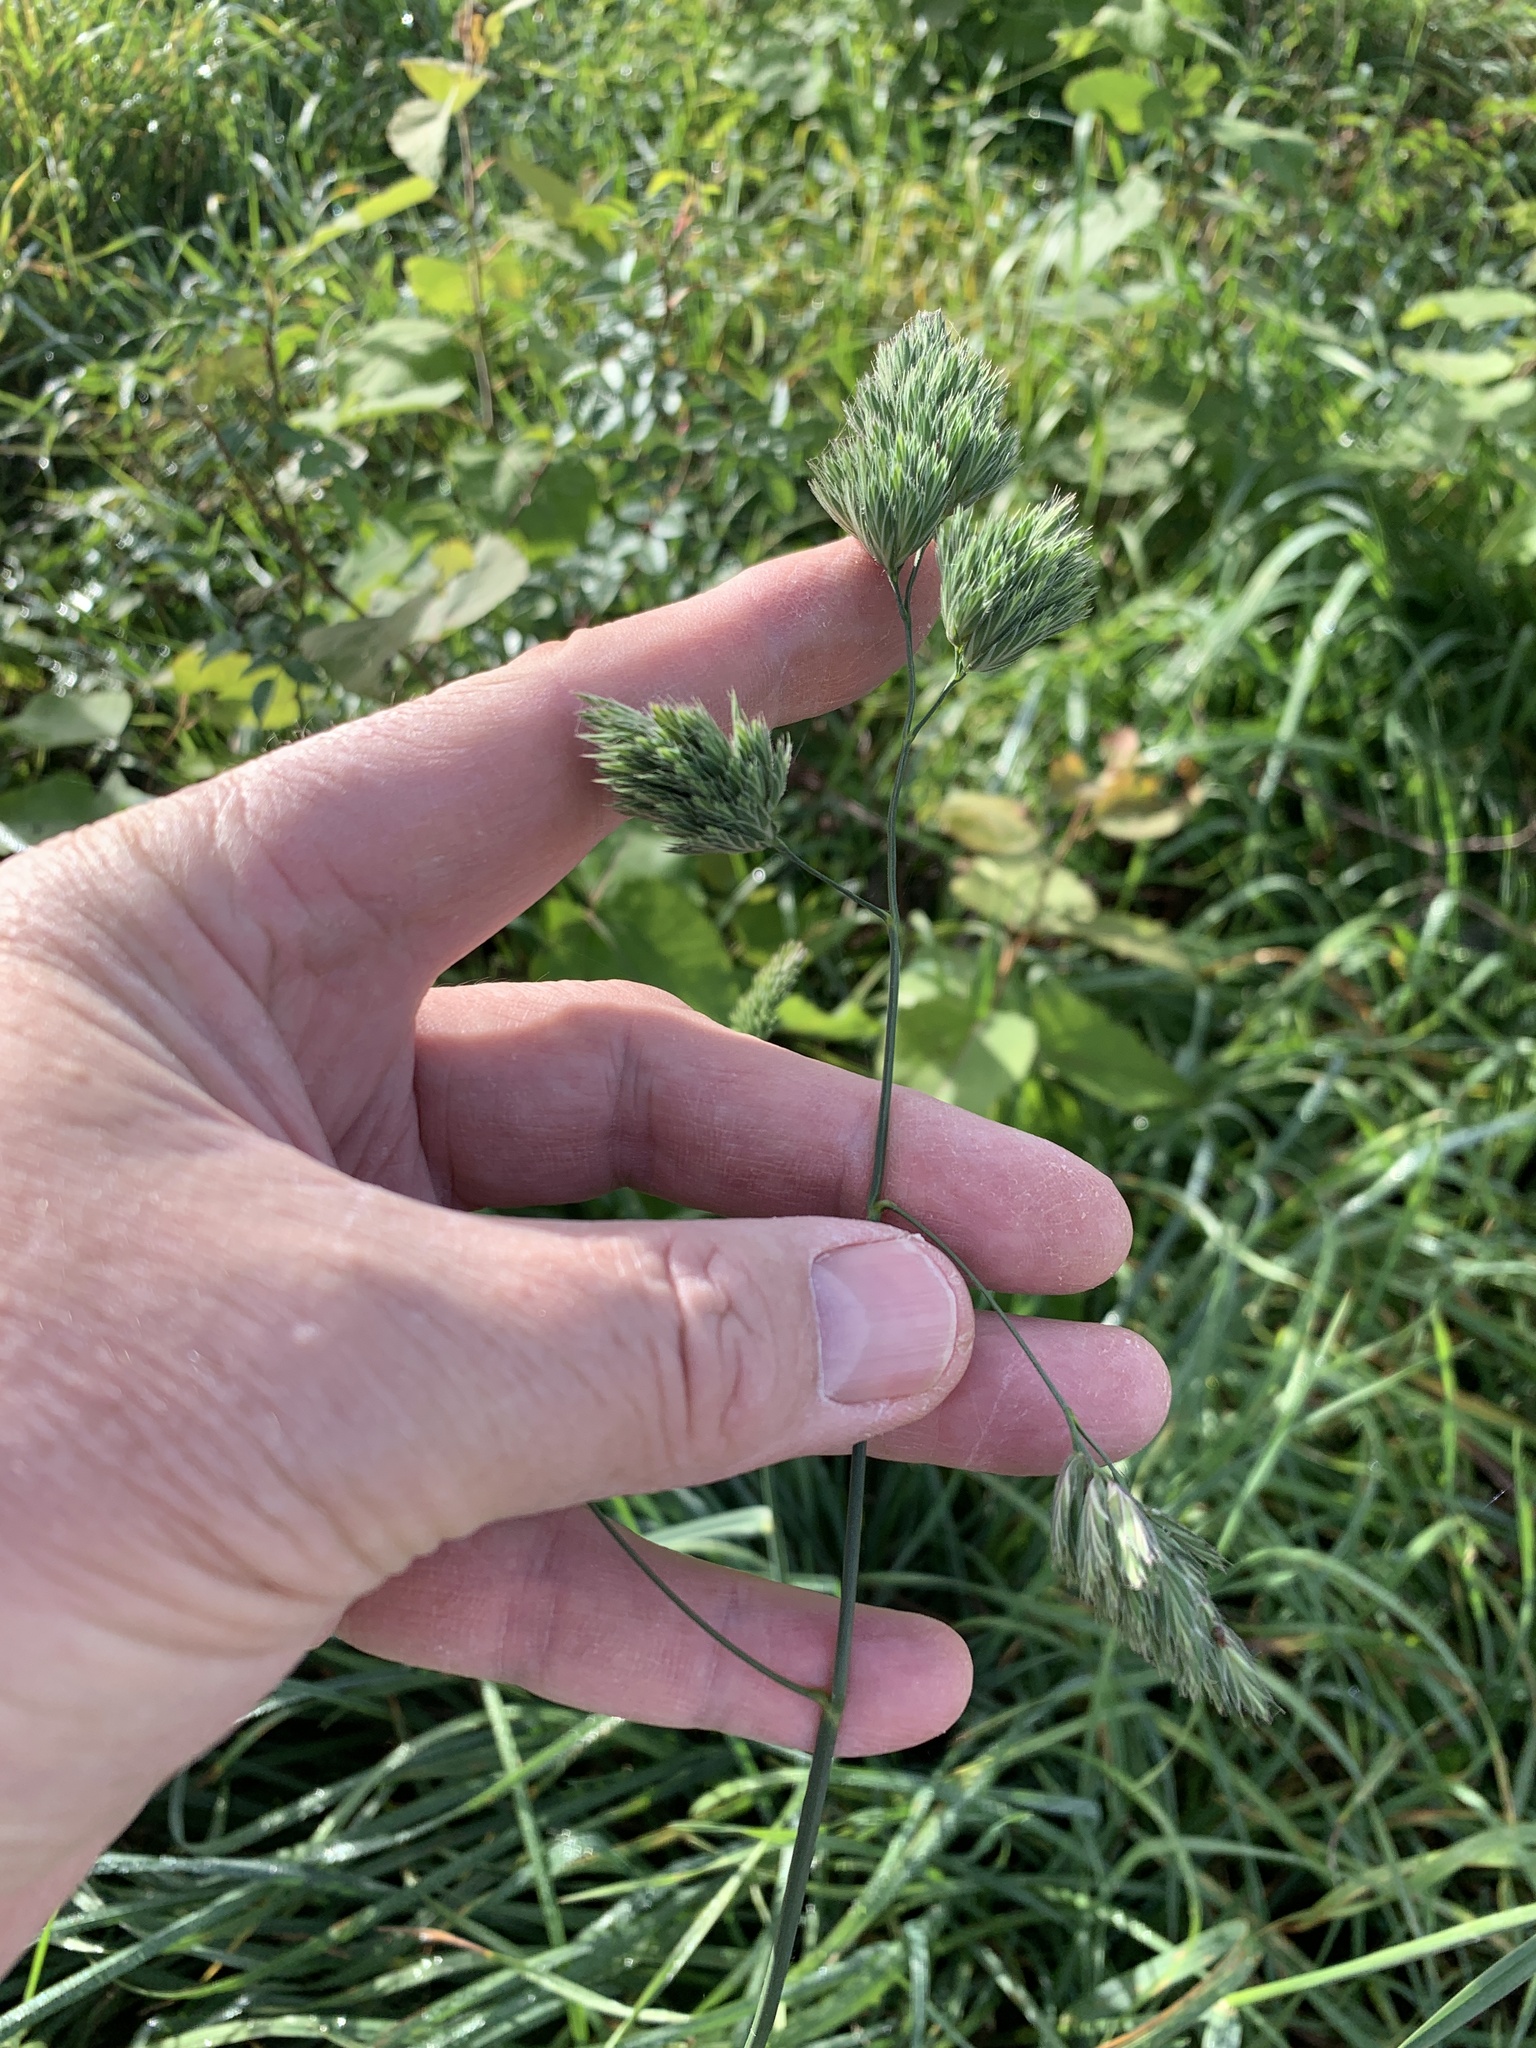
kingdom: Plantae
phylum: Tracheophyta
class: Liliopsida
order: Poales
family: Poaceae
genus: Dactylis
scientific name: Dactylis glomerata
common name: Orchardgrass
